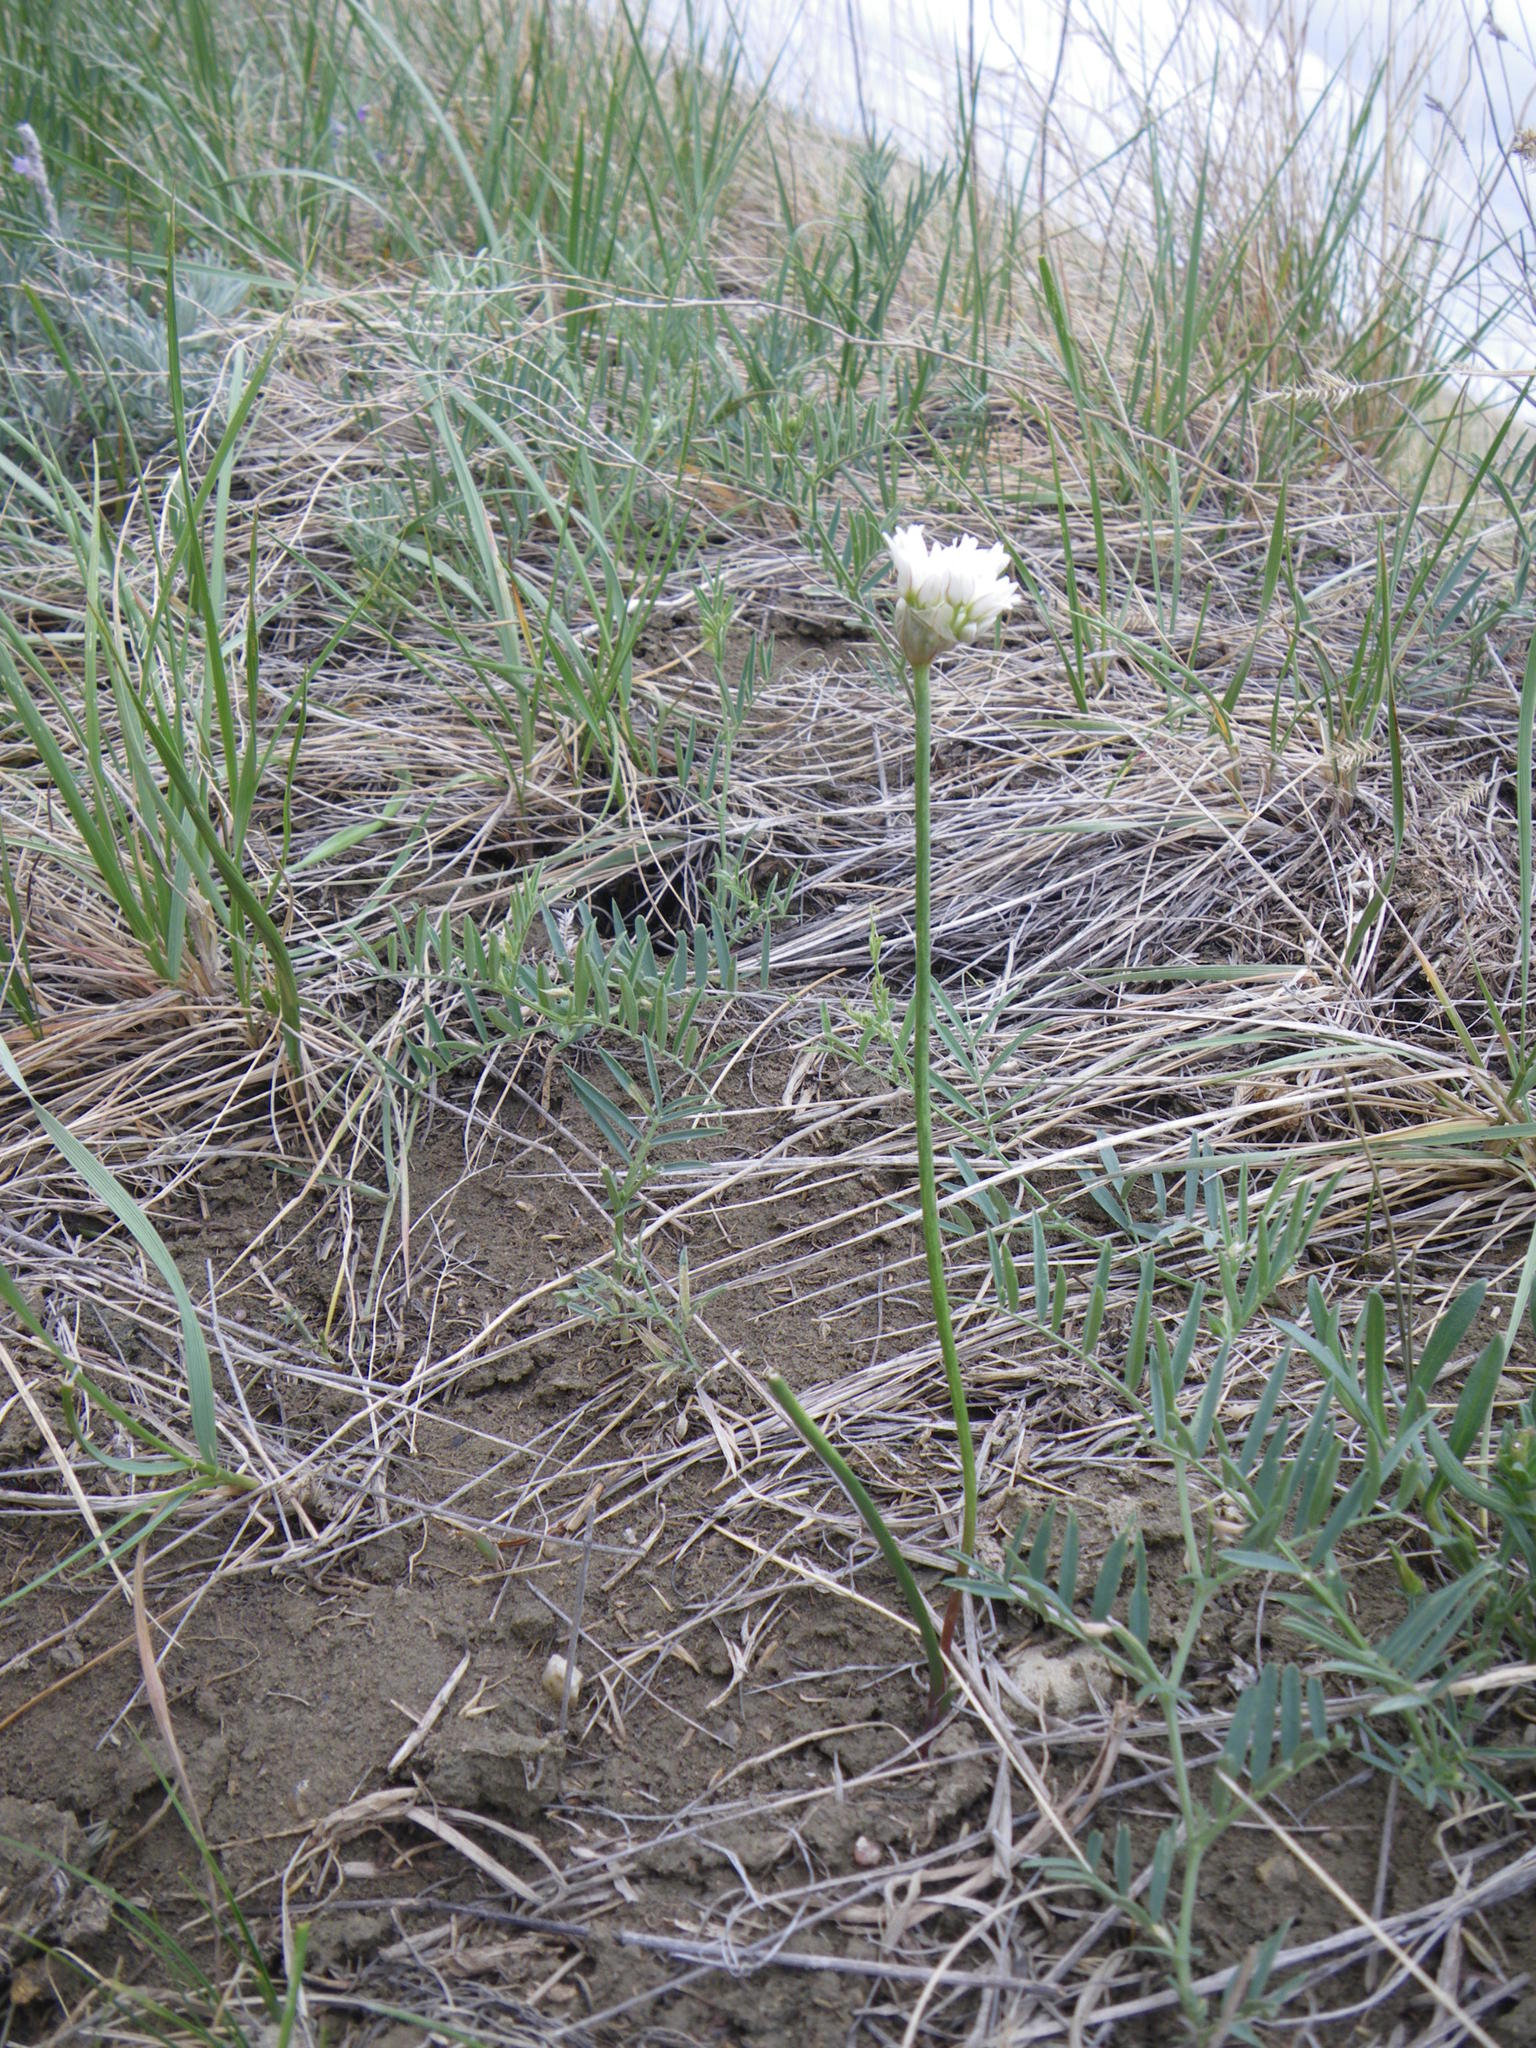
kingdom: Plantae
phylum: Tracheophyta
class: Liliopsida
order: Asparagales
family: Amaryllidaceae
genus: Allium
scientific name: Allium textile
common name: Prairie onion
